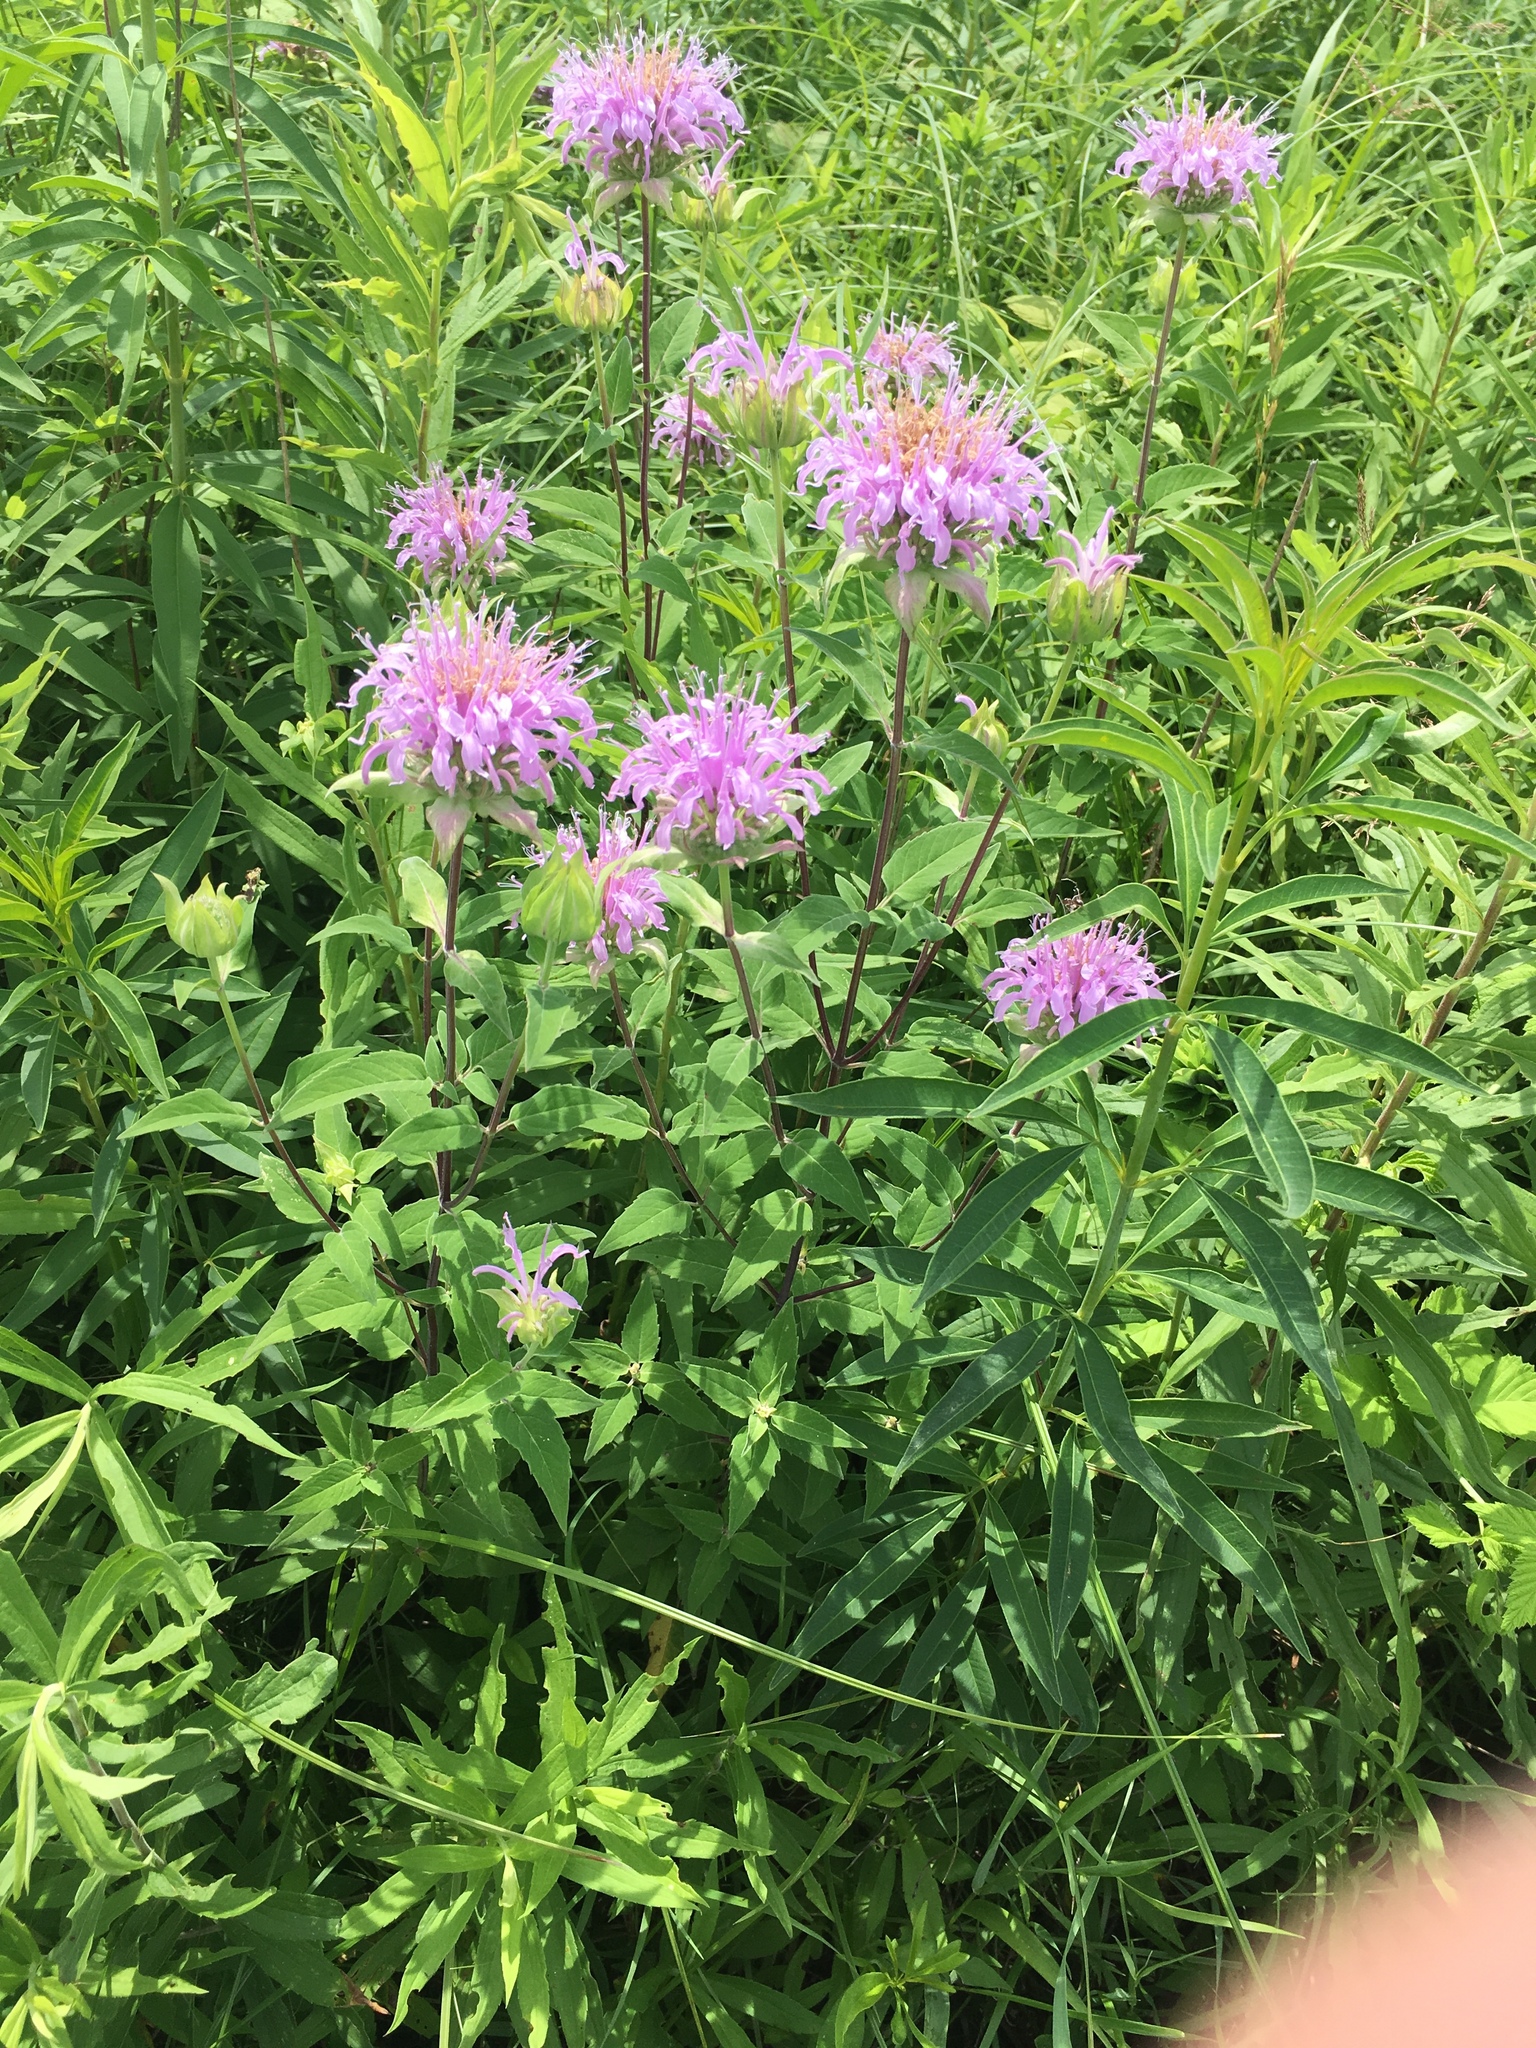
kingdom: Plantae
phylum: Tracheophyta
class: Magnoliopsida
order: Lamiales
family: Lamiaceae
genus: Monarda
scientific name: Monarda fistulosa
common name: Purple beebalm
